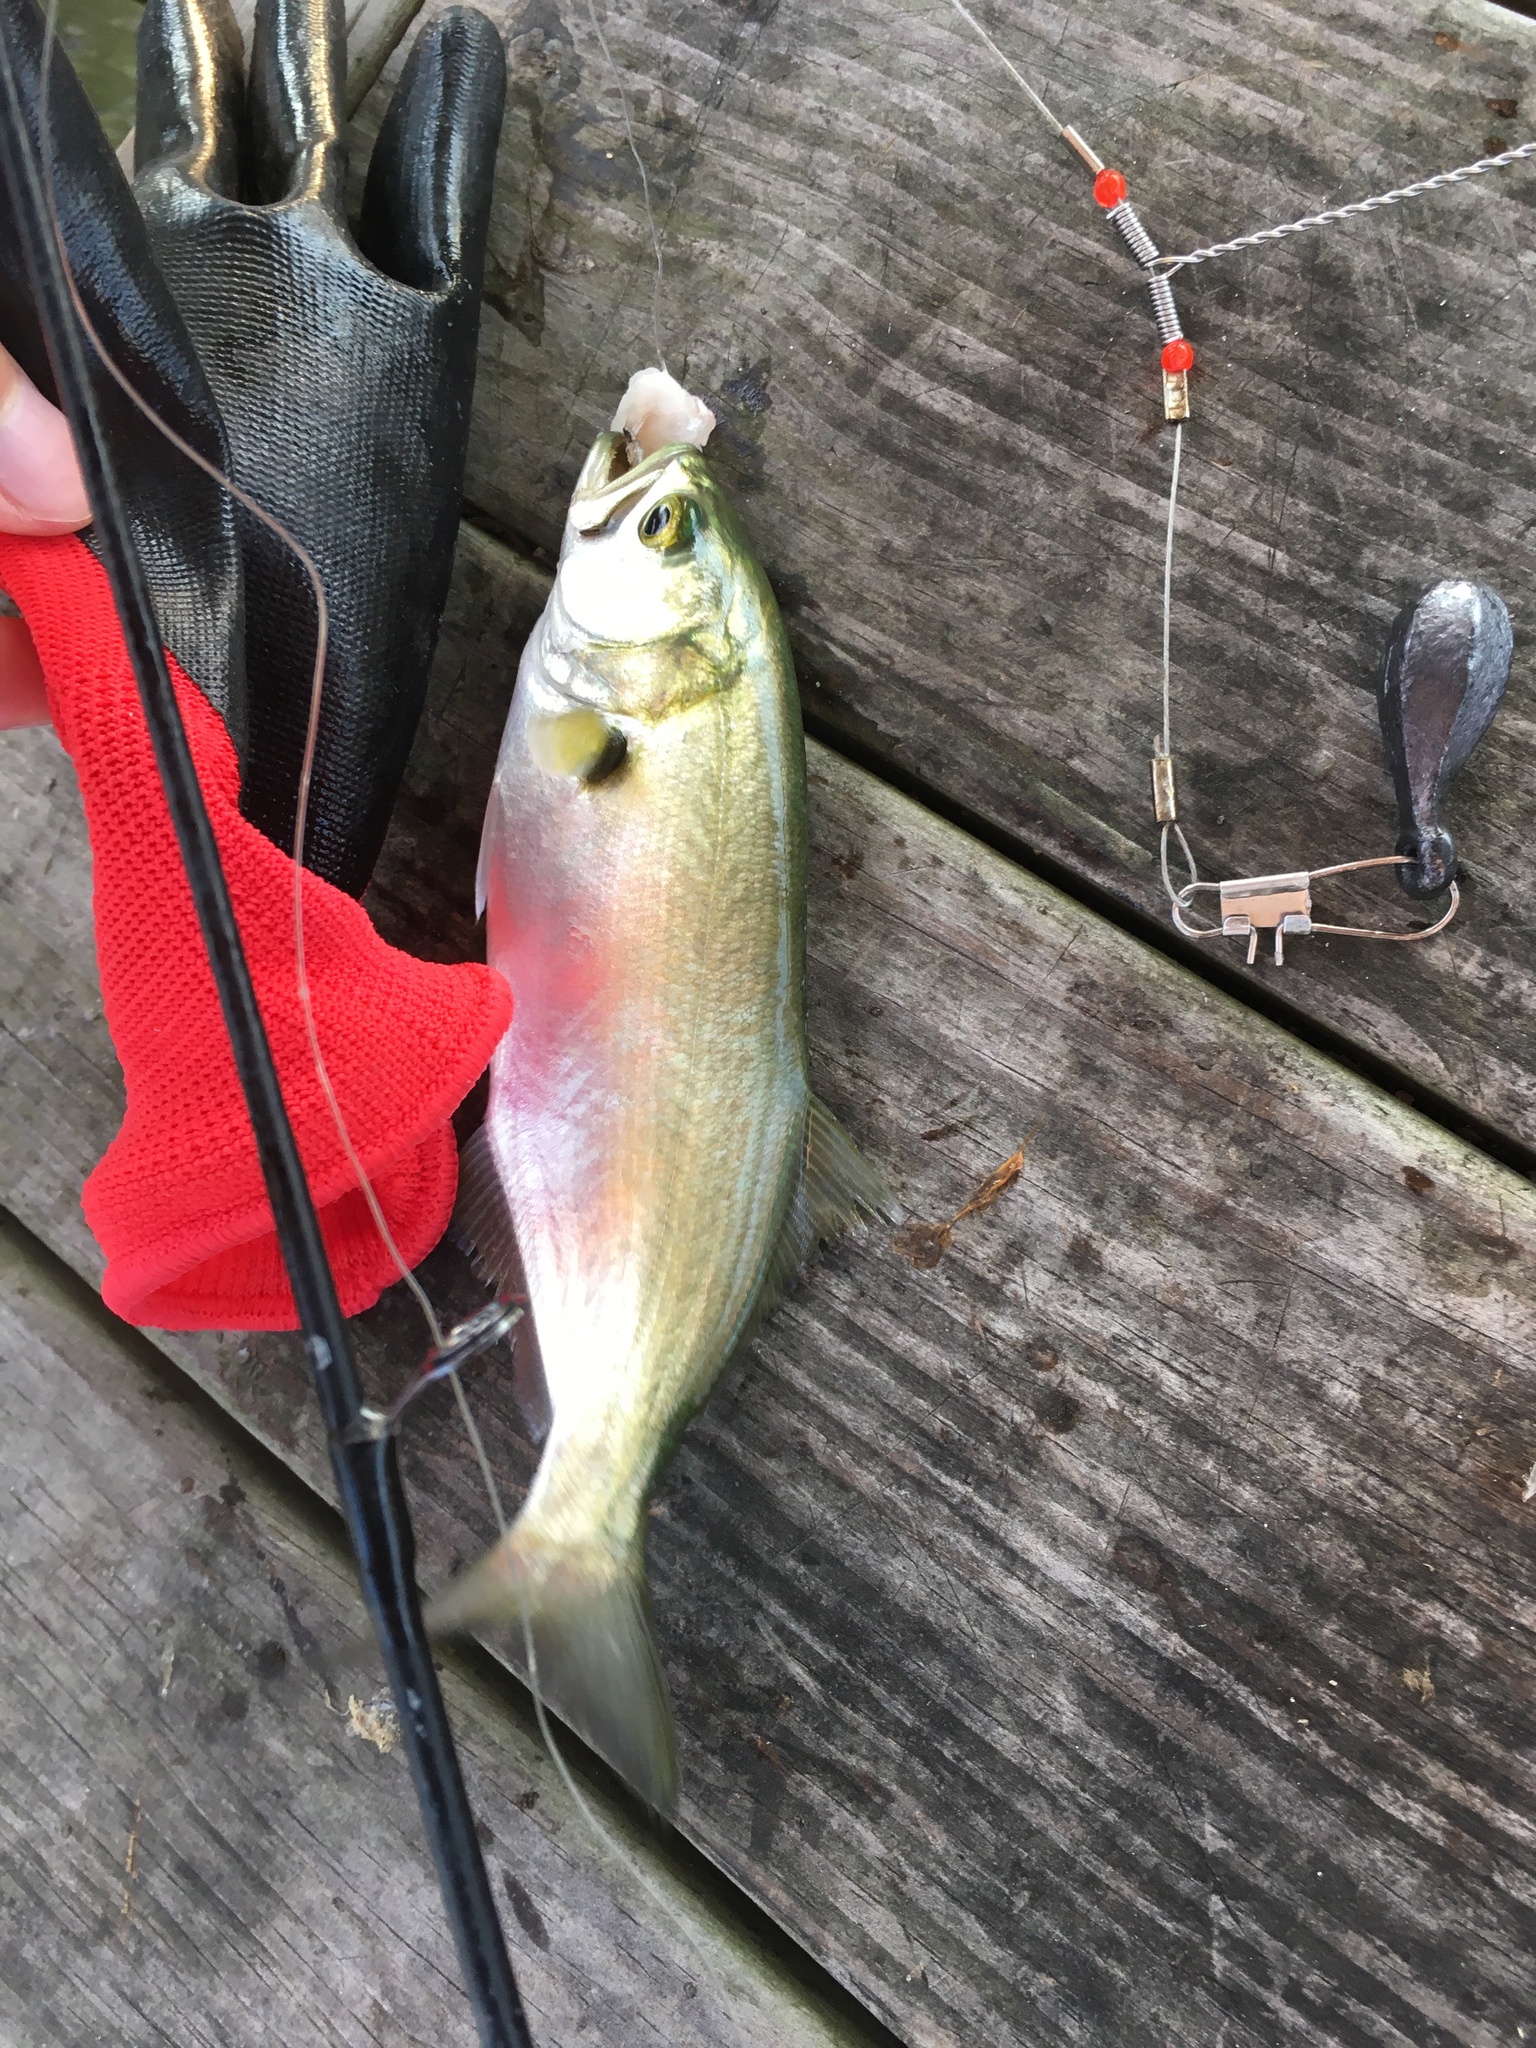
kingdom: Animalia
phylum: Chordata
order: Perciformes
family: Pomatomidae
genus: Pomatomus
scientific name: Pomatomus saltatrix
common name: Bluefish
